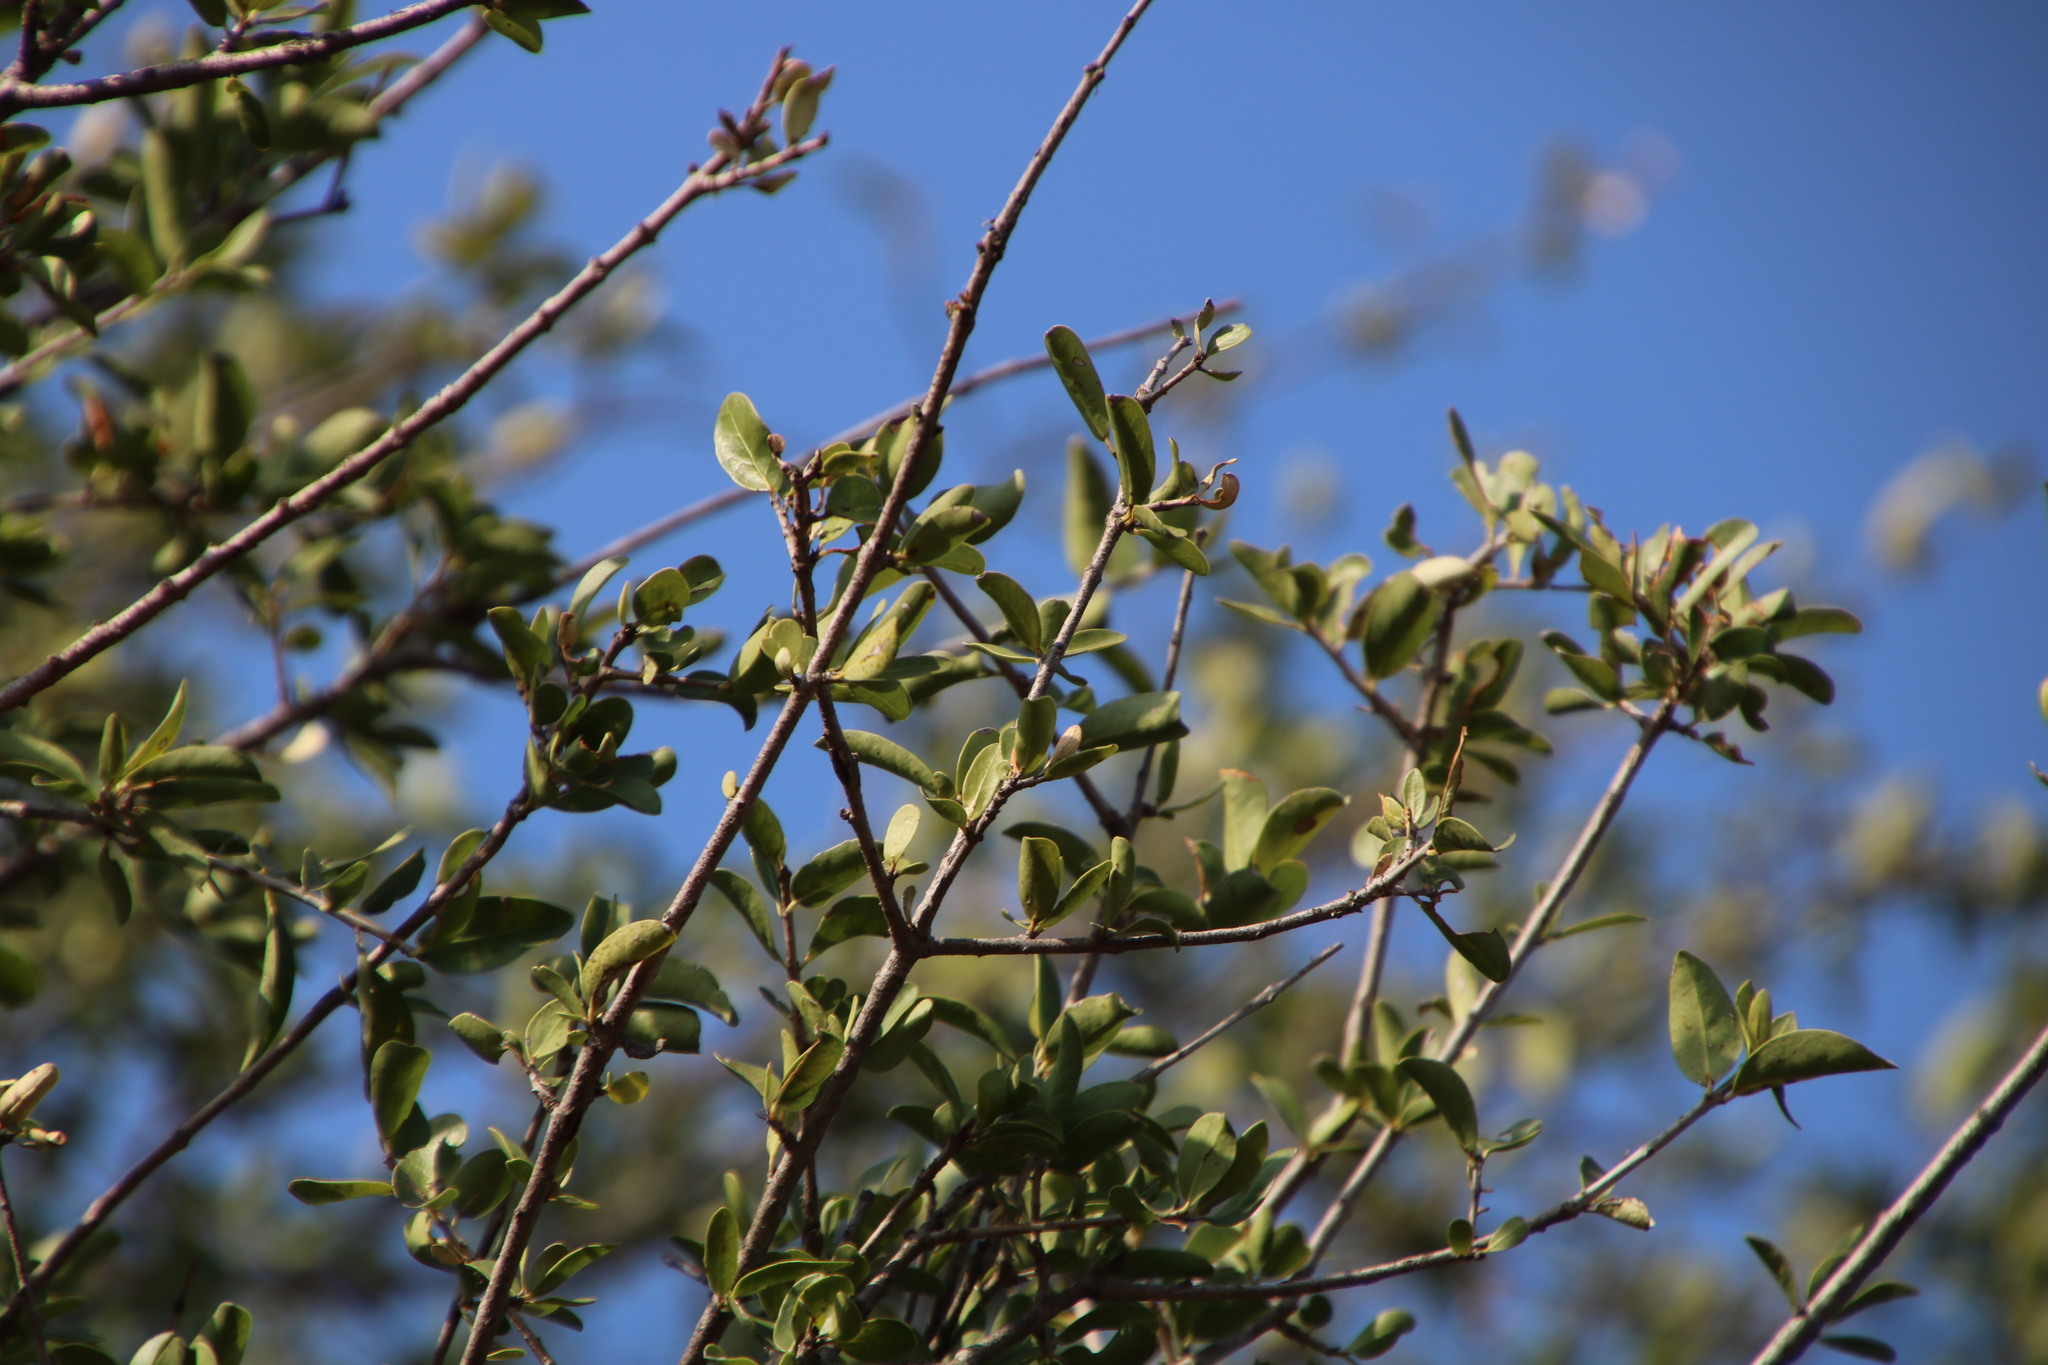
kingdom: Plantae
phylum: Tracheophyta
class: Magnoliopsida
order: Celastrales
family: Celastraceae
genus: Elaeodendron
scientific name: Elaeodendron transvaalense
